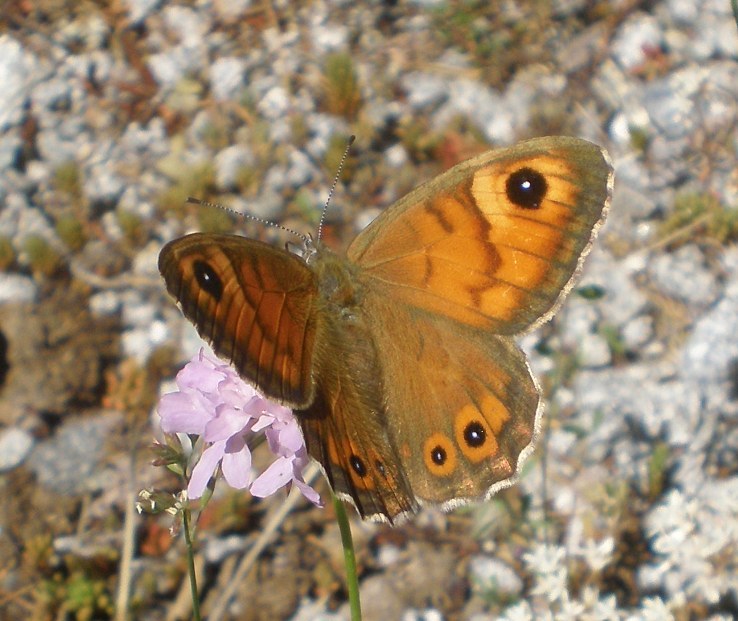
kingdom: Animalia
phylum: Arthropoda
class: Insecta
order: Lepidoptera
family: Nymphalidae
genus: Pararge
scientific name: Pararge Lasiommata maera
